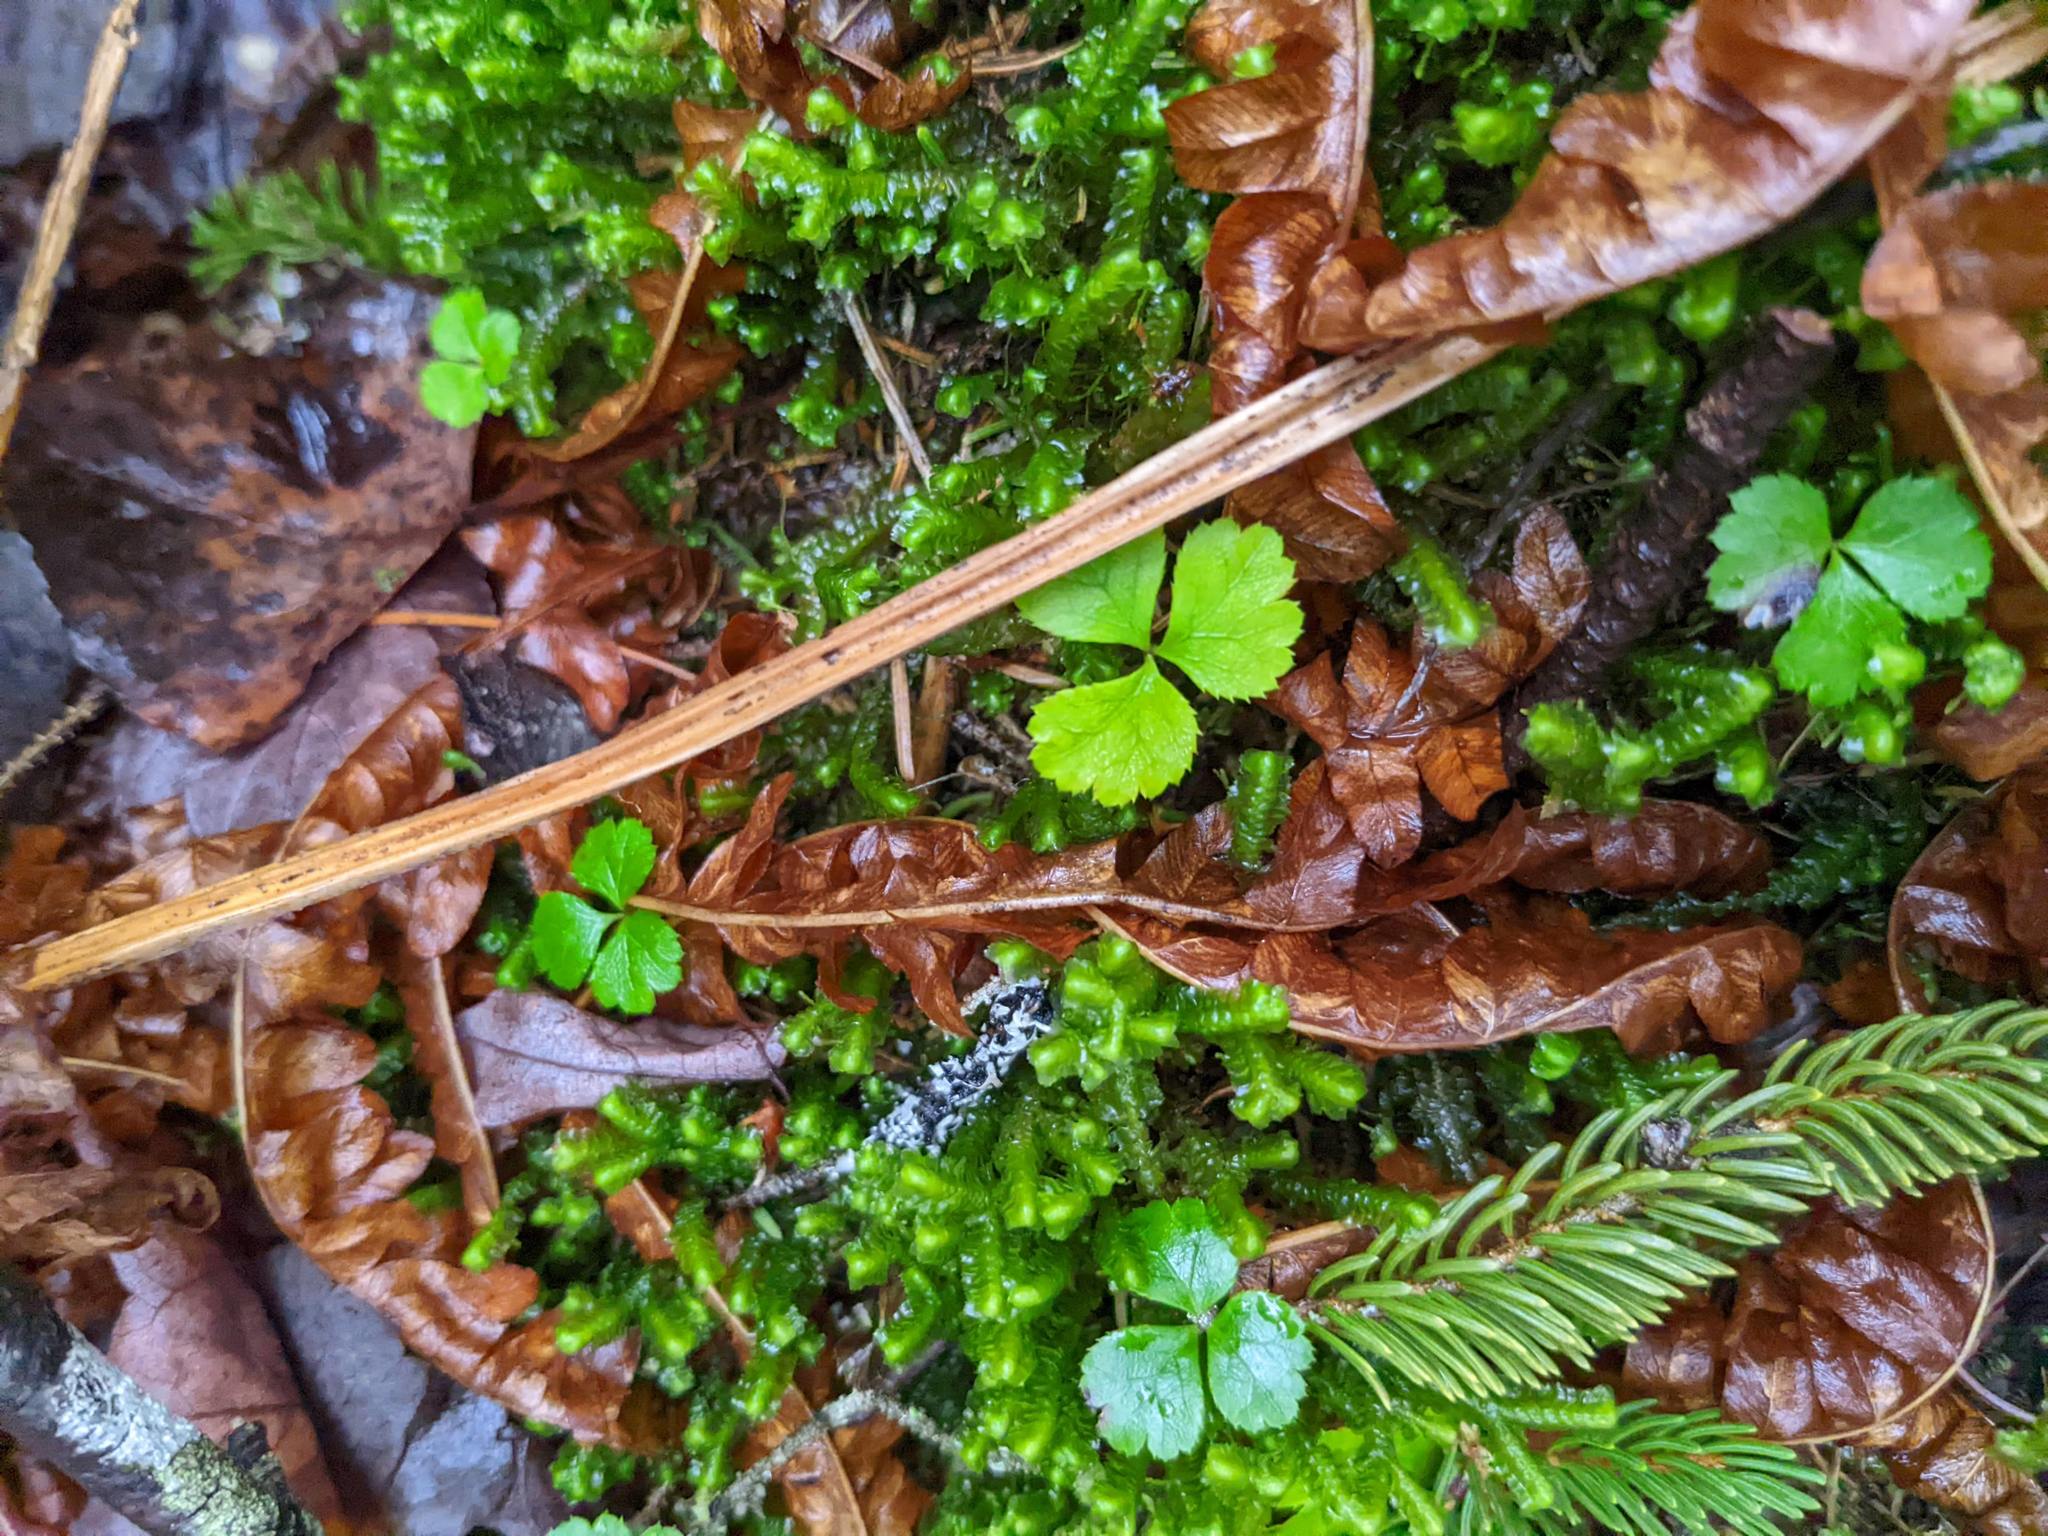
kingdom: Plantae
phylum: Tracheophyta
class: Magnoliopsida
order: Ranunculales
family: Ranunculaceae
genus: Coptis
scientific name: Coptis trifolia
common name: Canker-root
